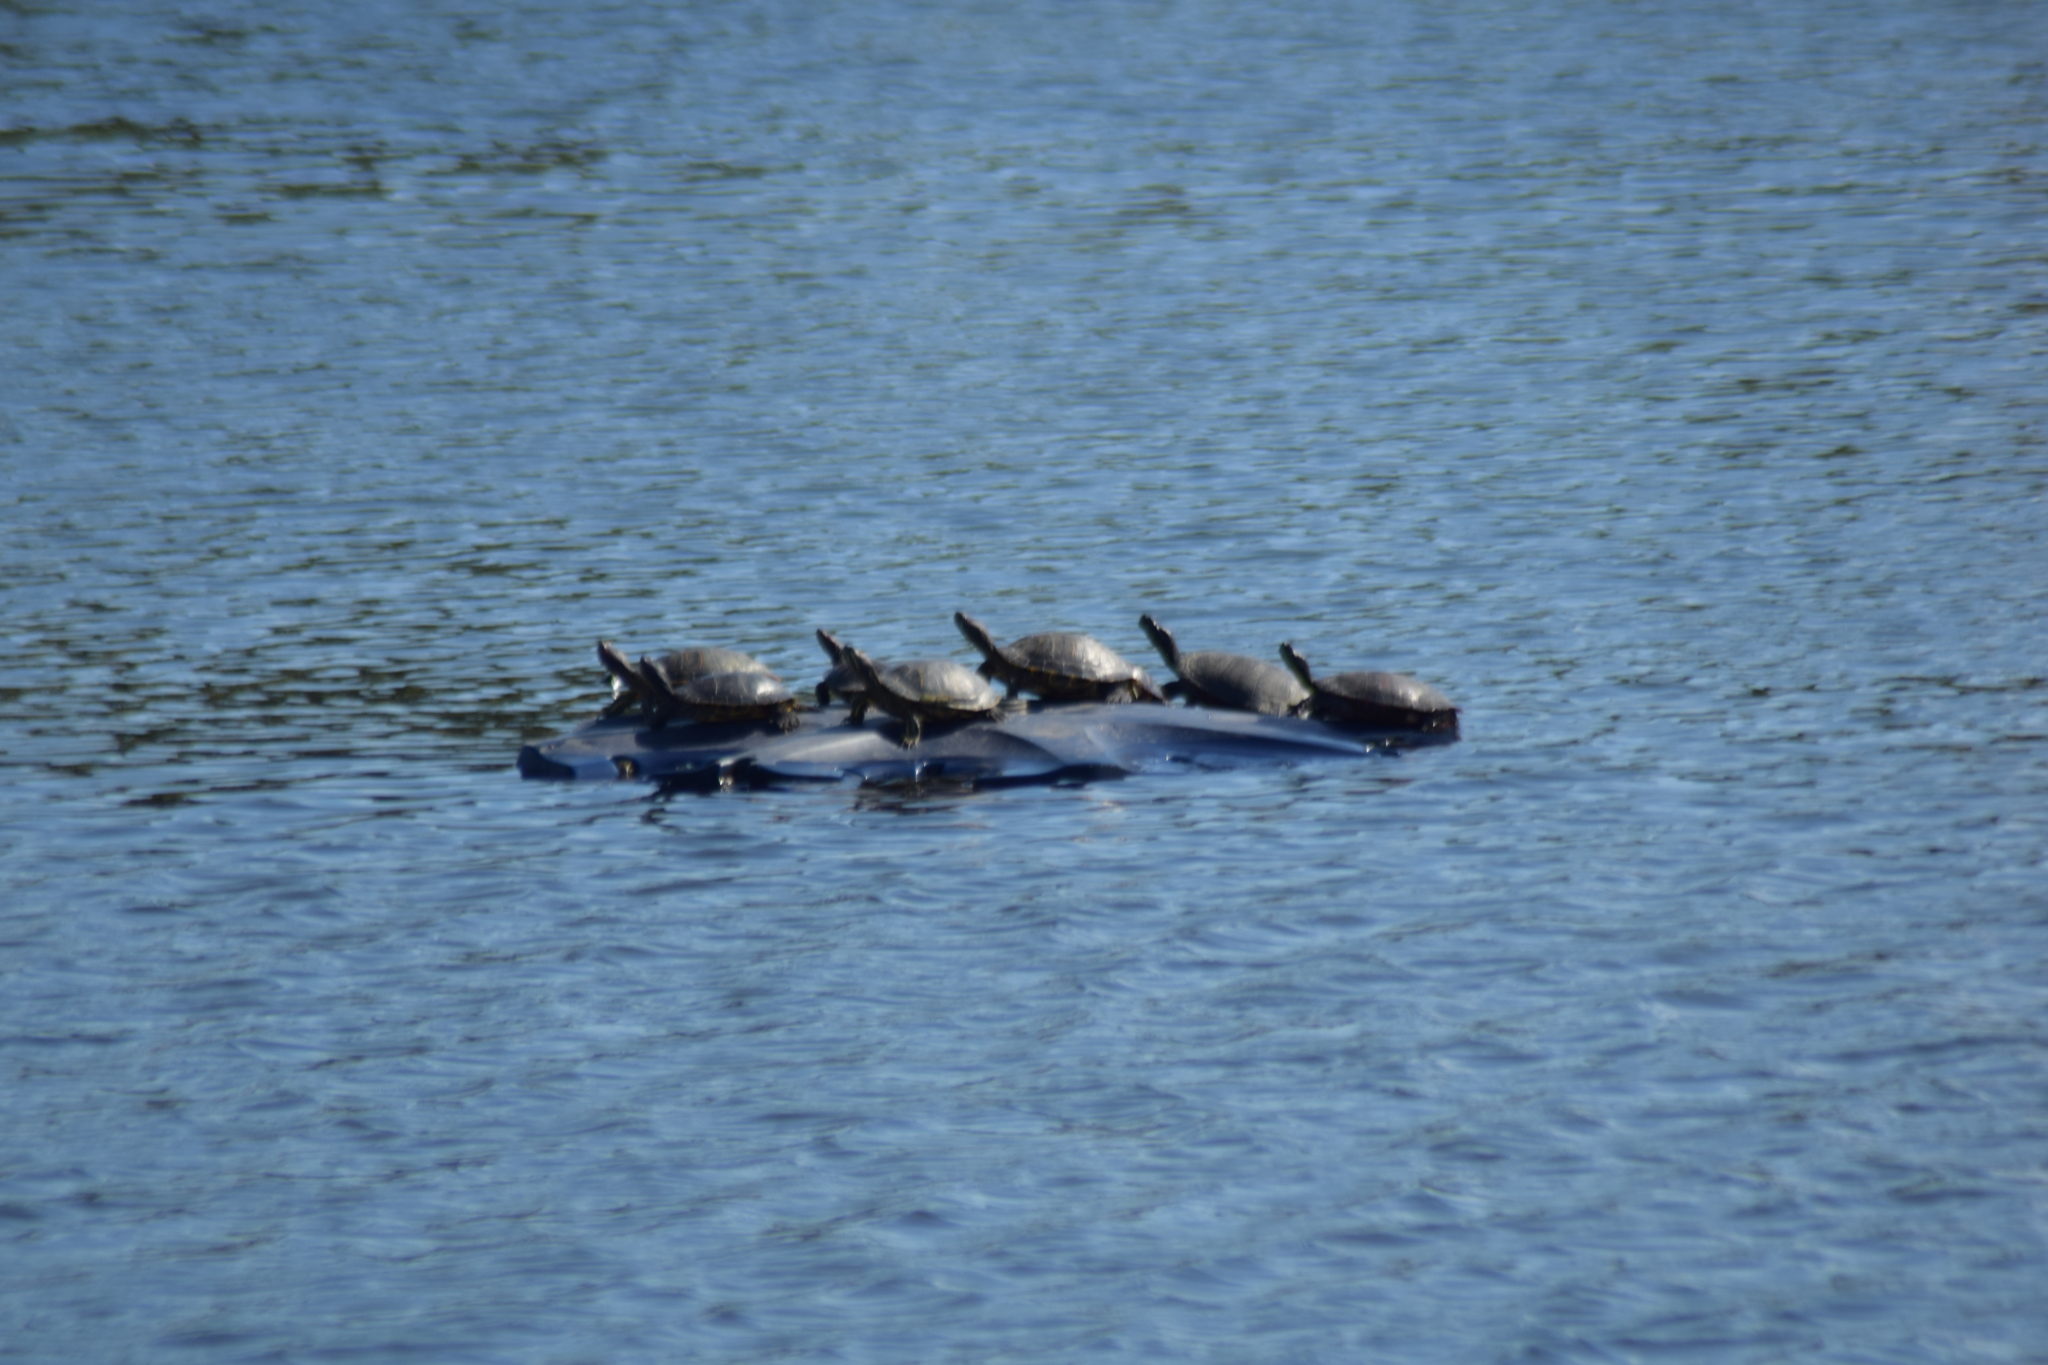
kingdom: Animalia
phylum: Chordata
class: Testudines
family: Emydidae
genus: Pseudemys
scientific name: Pseudemys rubriventris
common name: American red-bellied turtle
